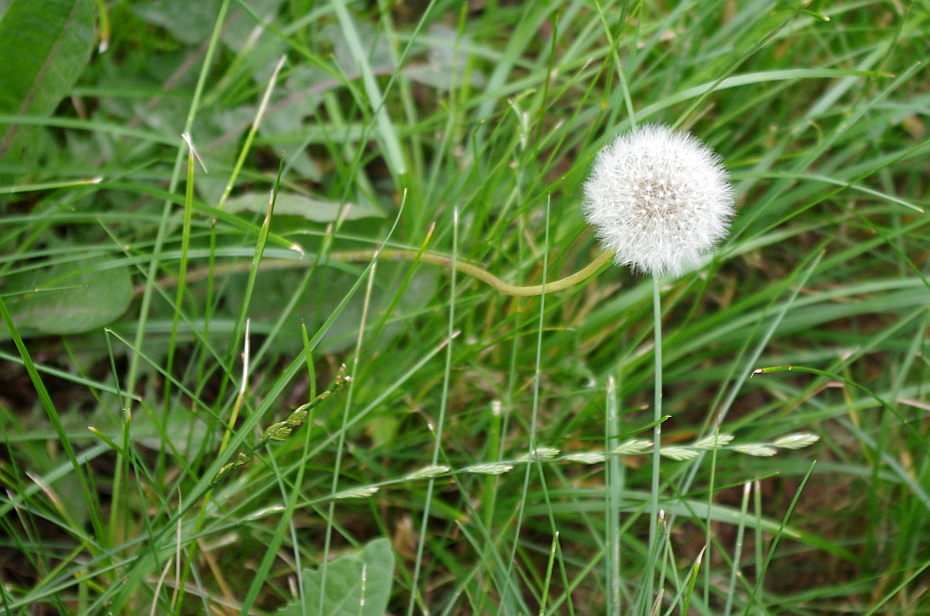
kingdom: Plantae
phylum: Tracheophyta
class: Magnoliopsida
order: Asterales
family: Asteraceae
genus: Taraxacum
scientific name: Taraxacum officinale
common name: Common dandelion
